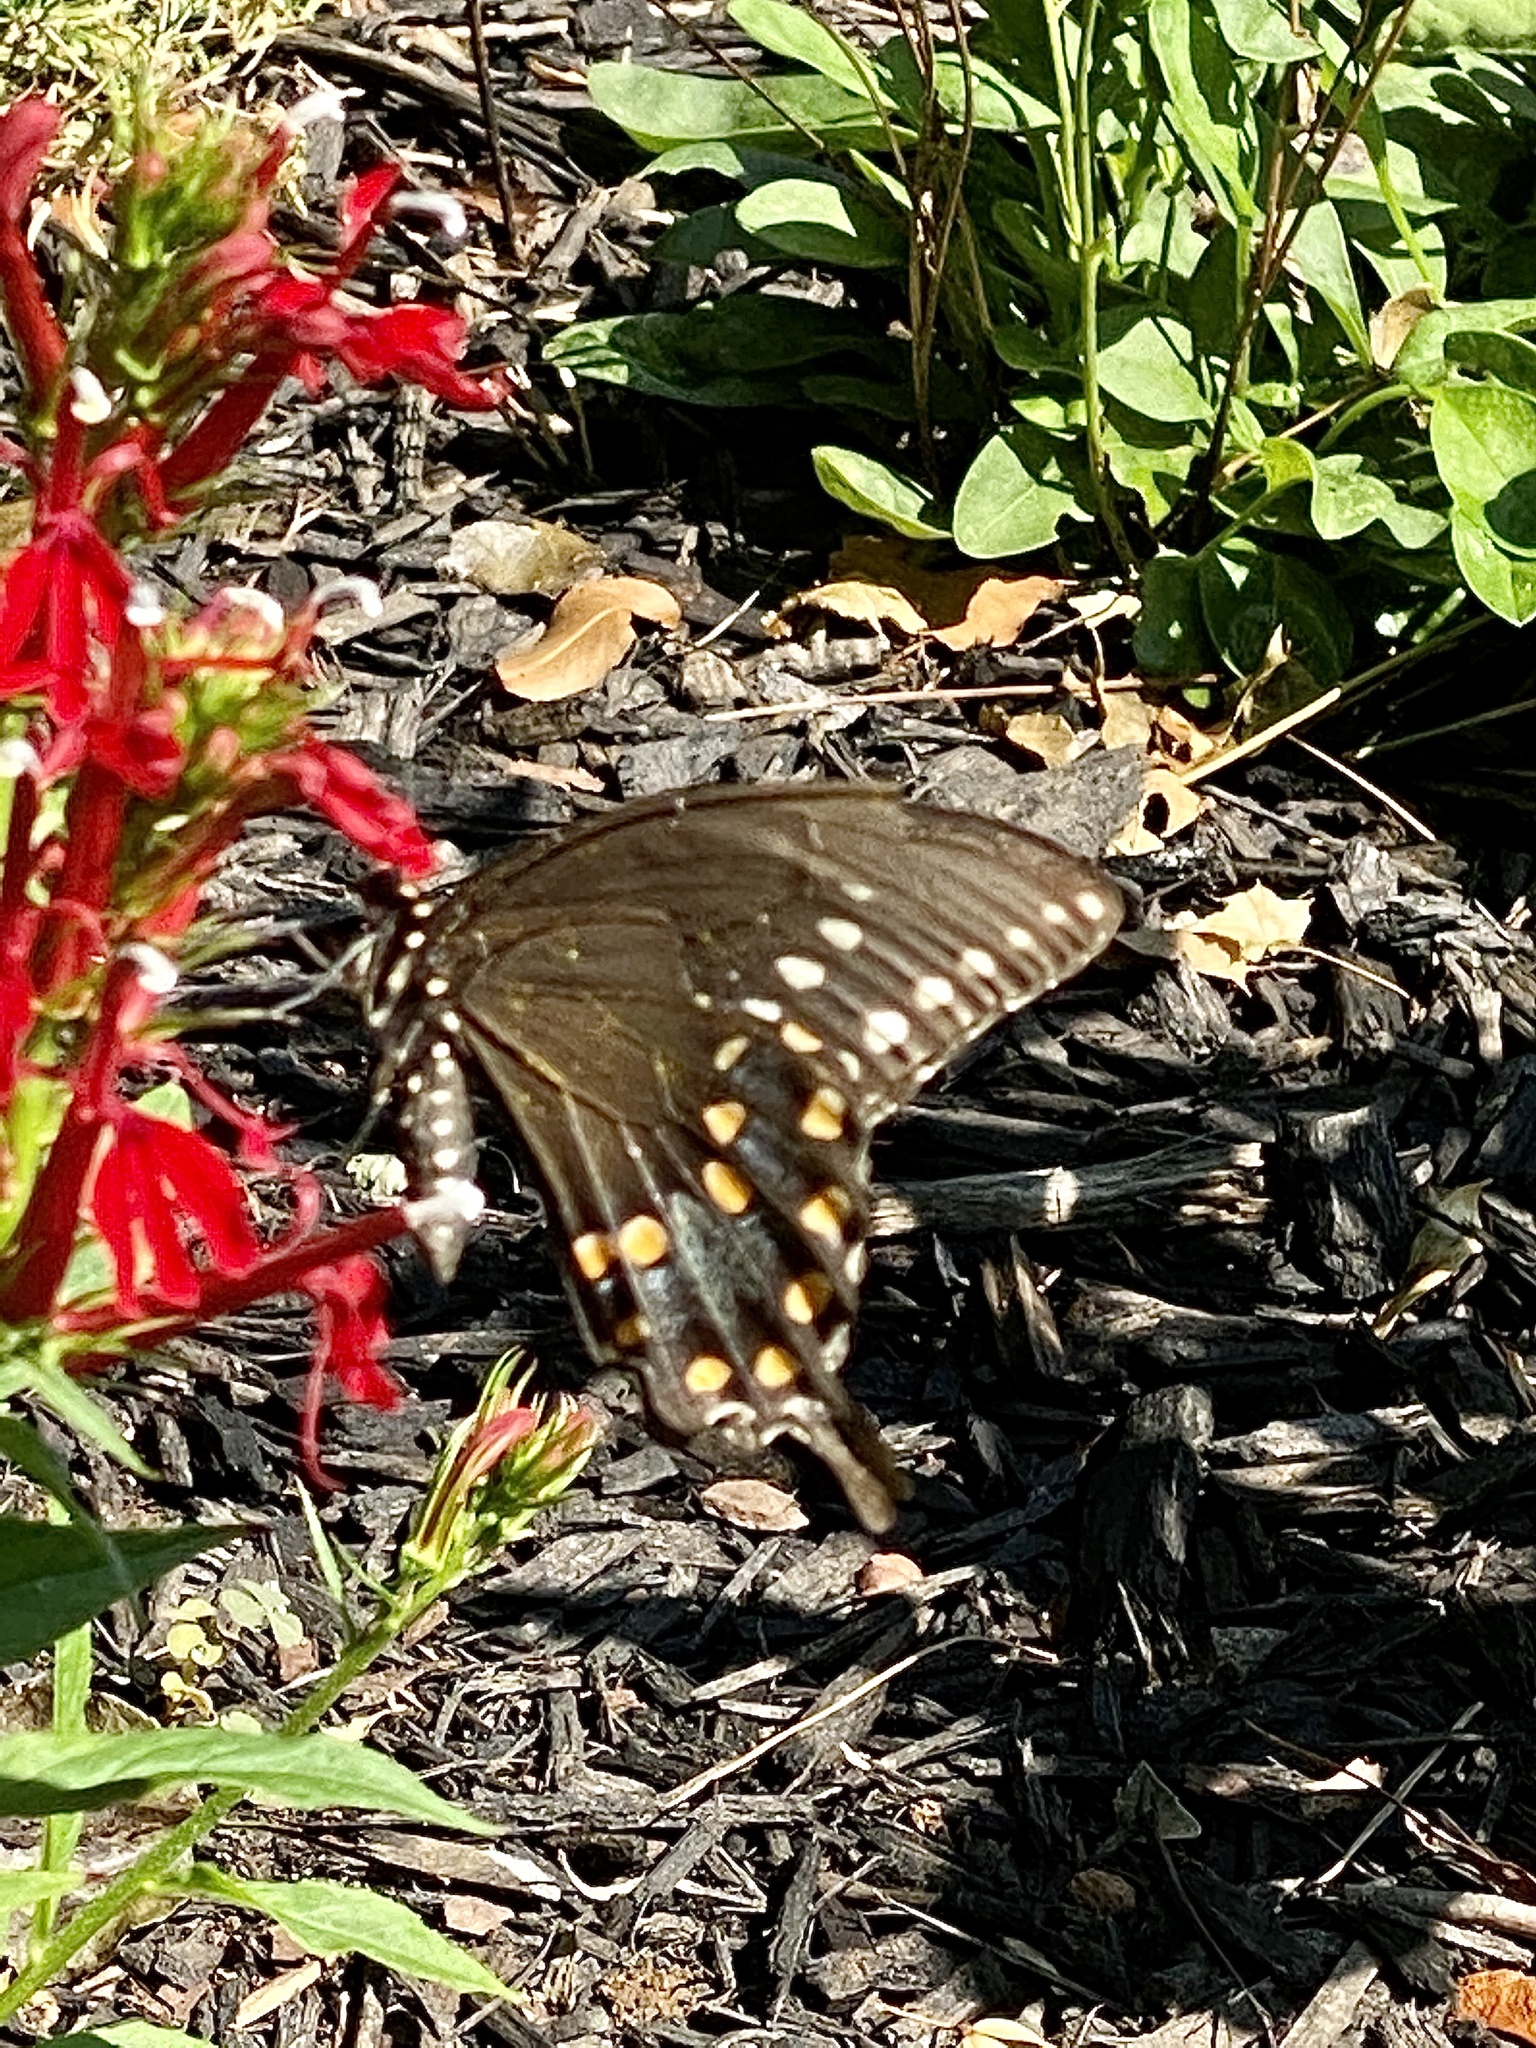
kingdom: Animalia
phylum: Arthropoda
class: Insecta
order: Lepidoptera
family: Papilionidae
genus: Papilio
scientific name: Papilio troilus
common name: Spicebush swallowtail
